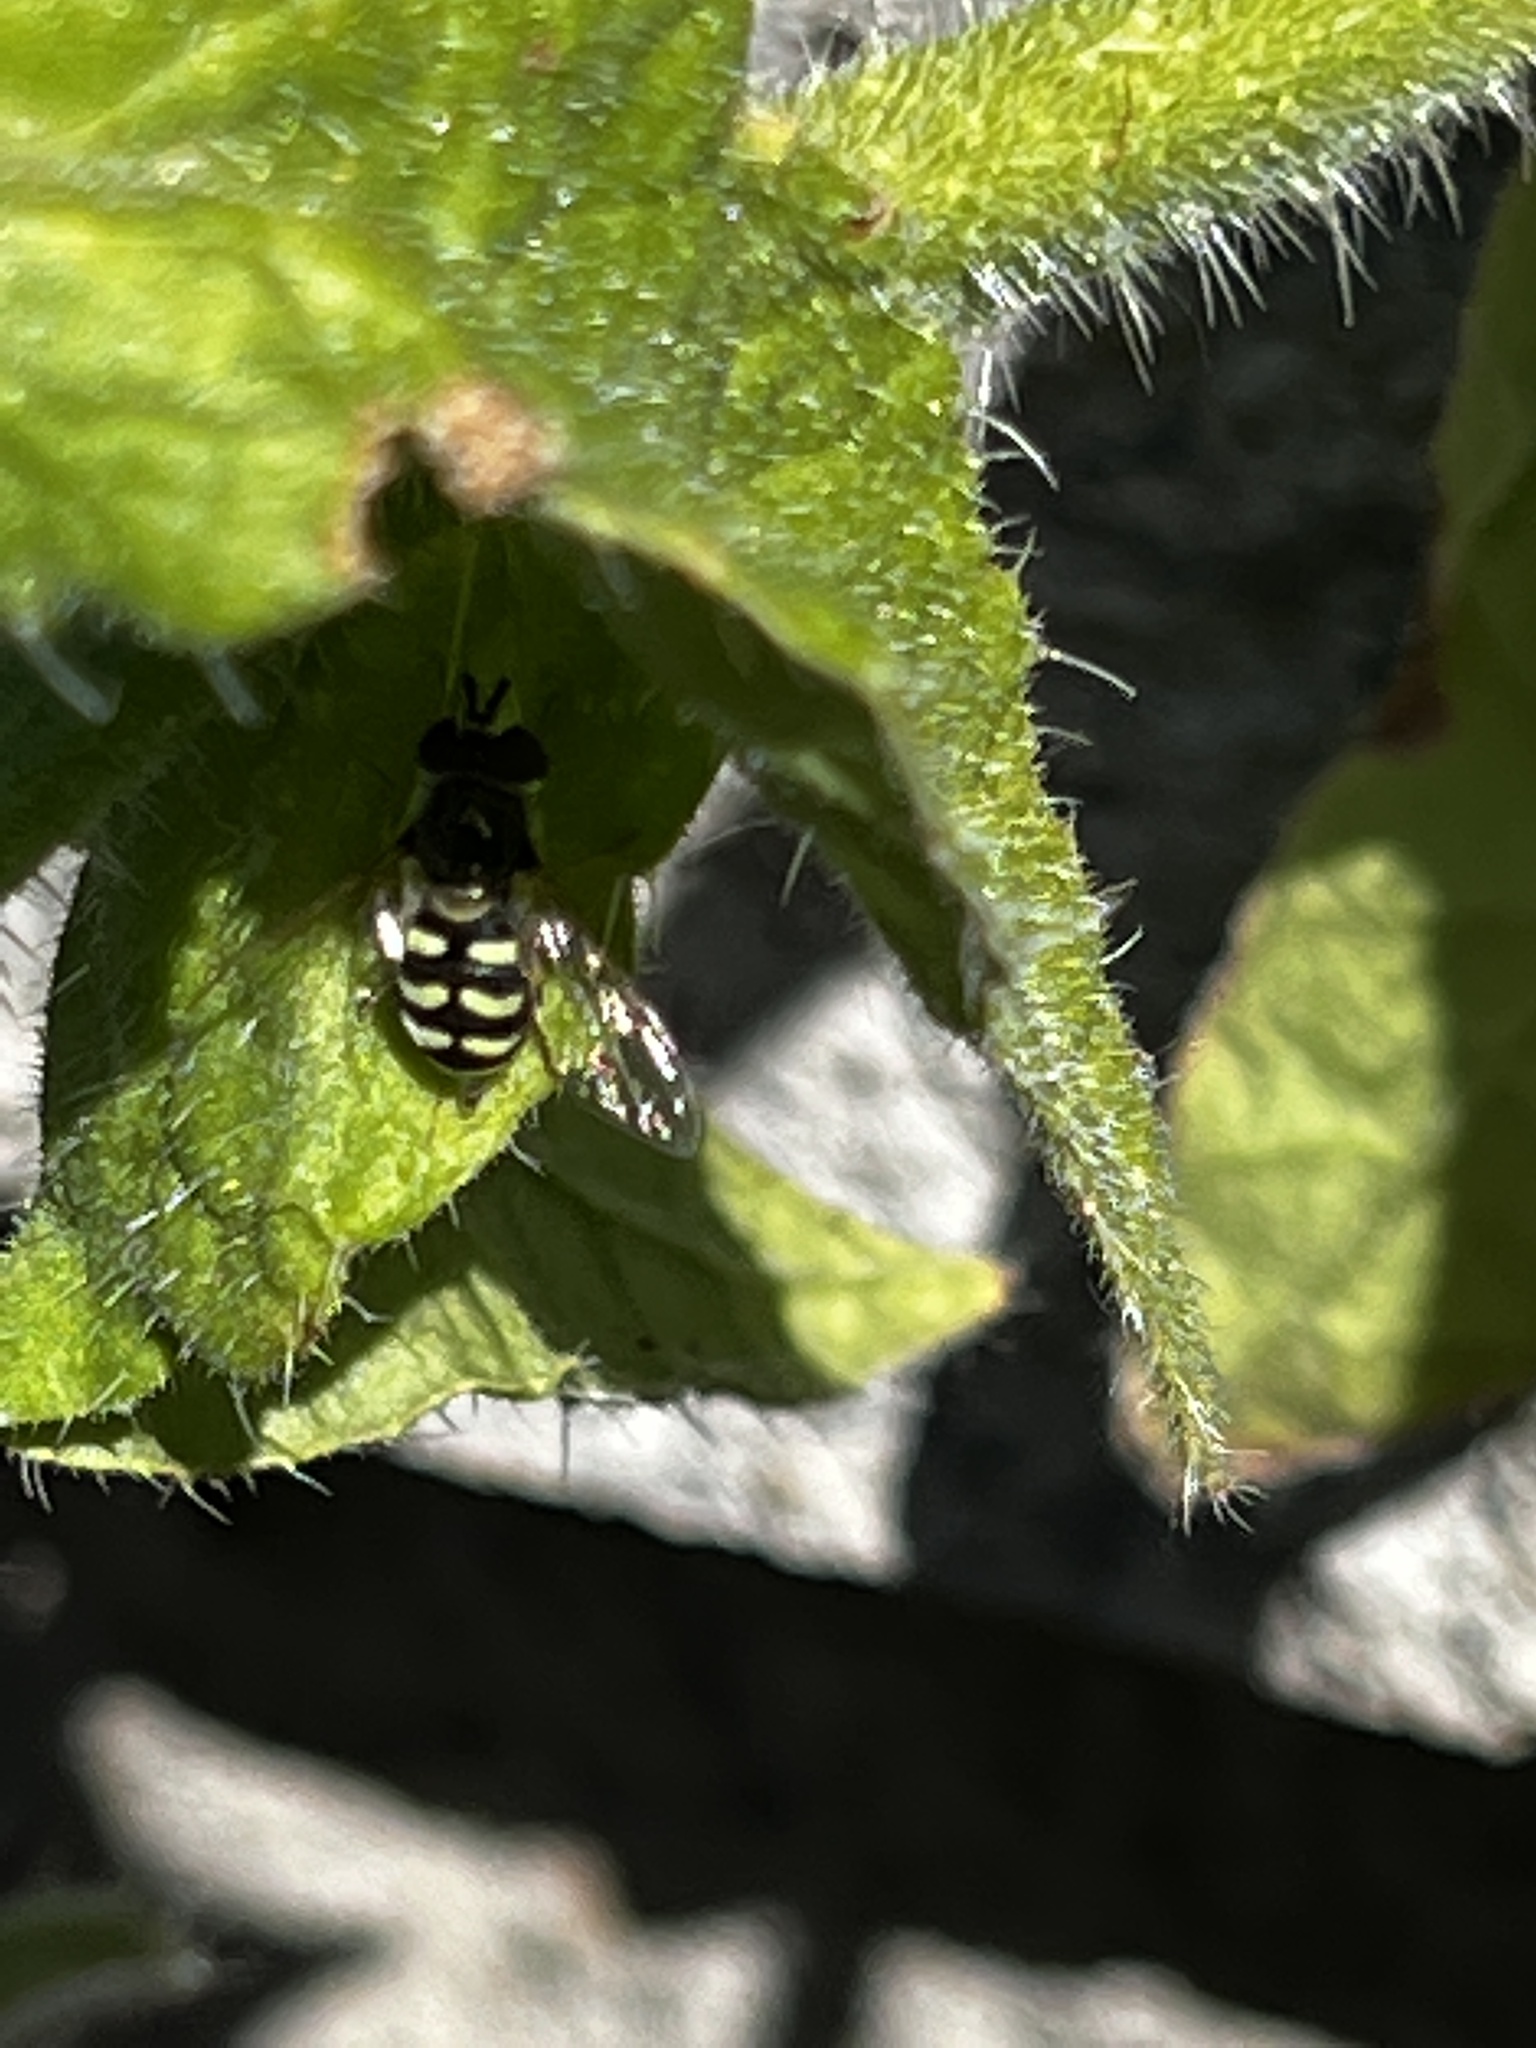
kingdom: Animalia
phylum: Arthropoda
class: Insecta
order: Diptera
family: Syrphidae
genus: Eupeodes
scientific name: Eupeodes volucris
